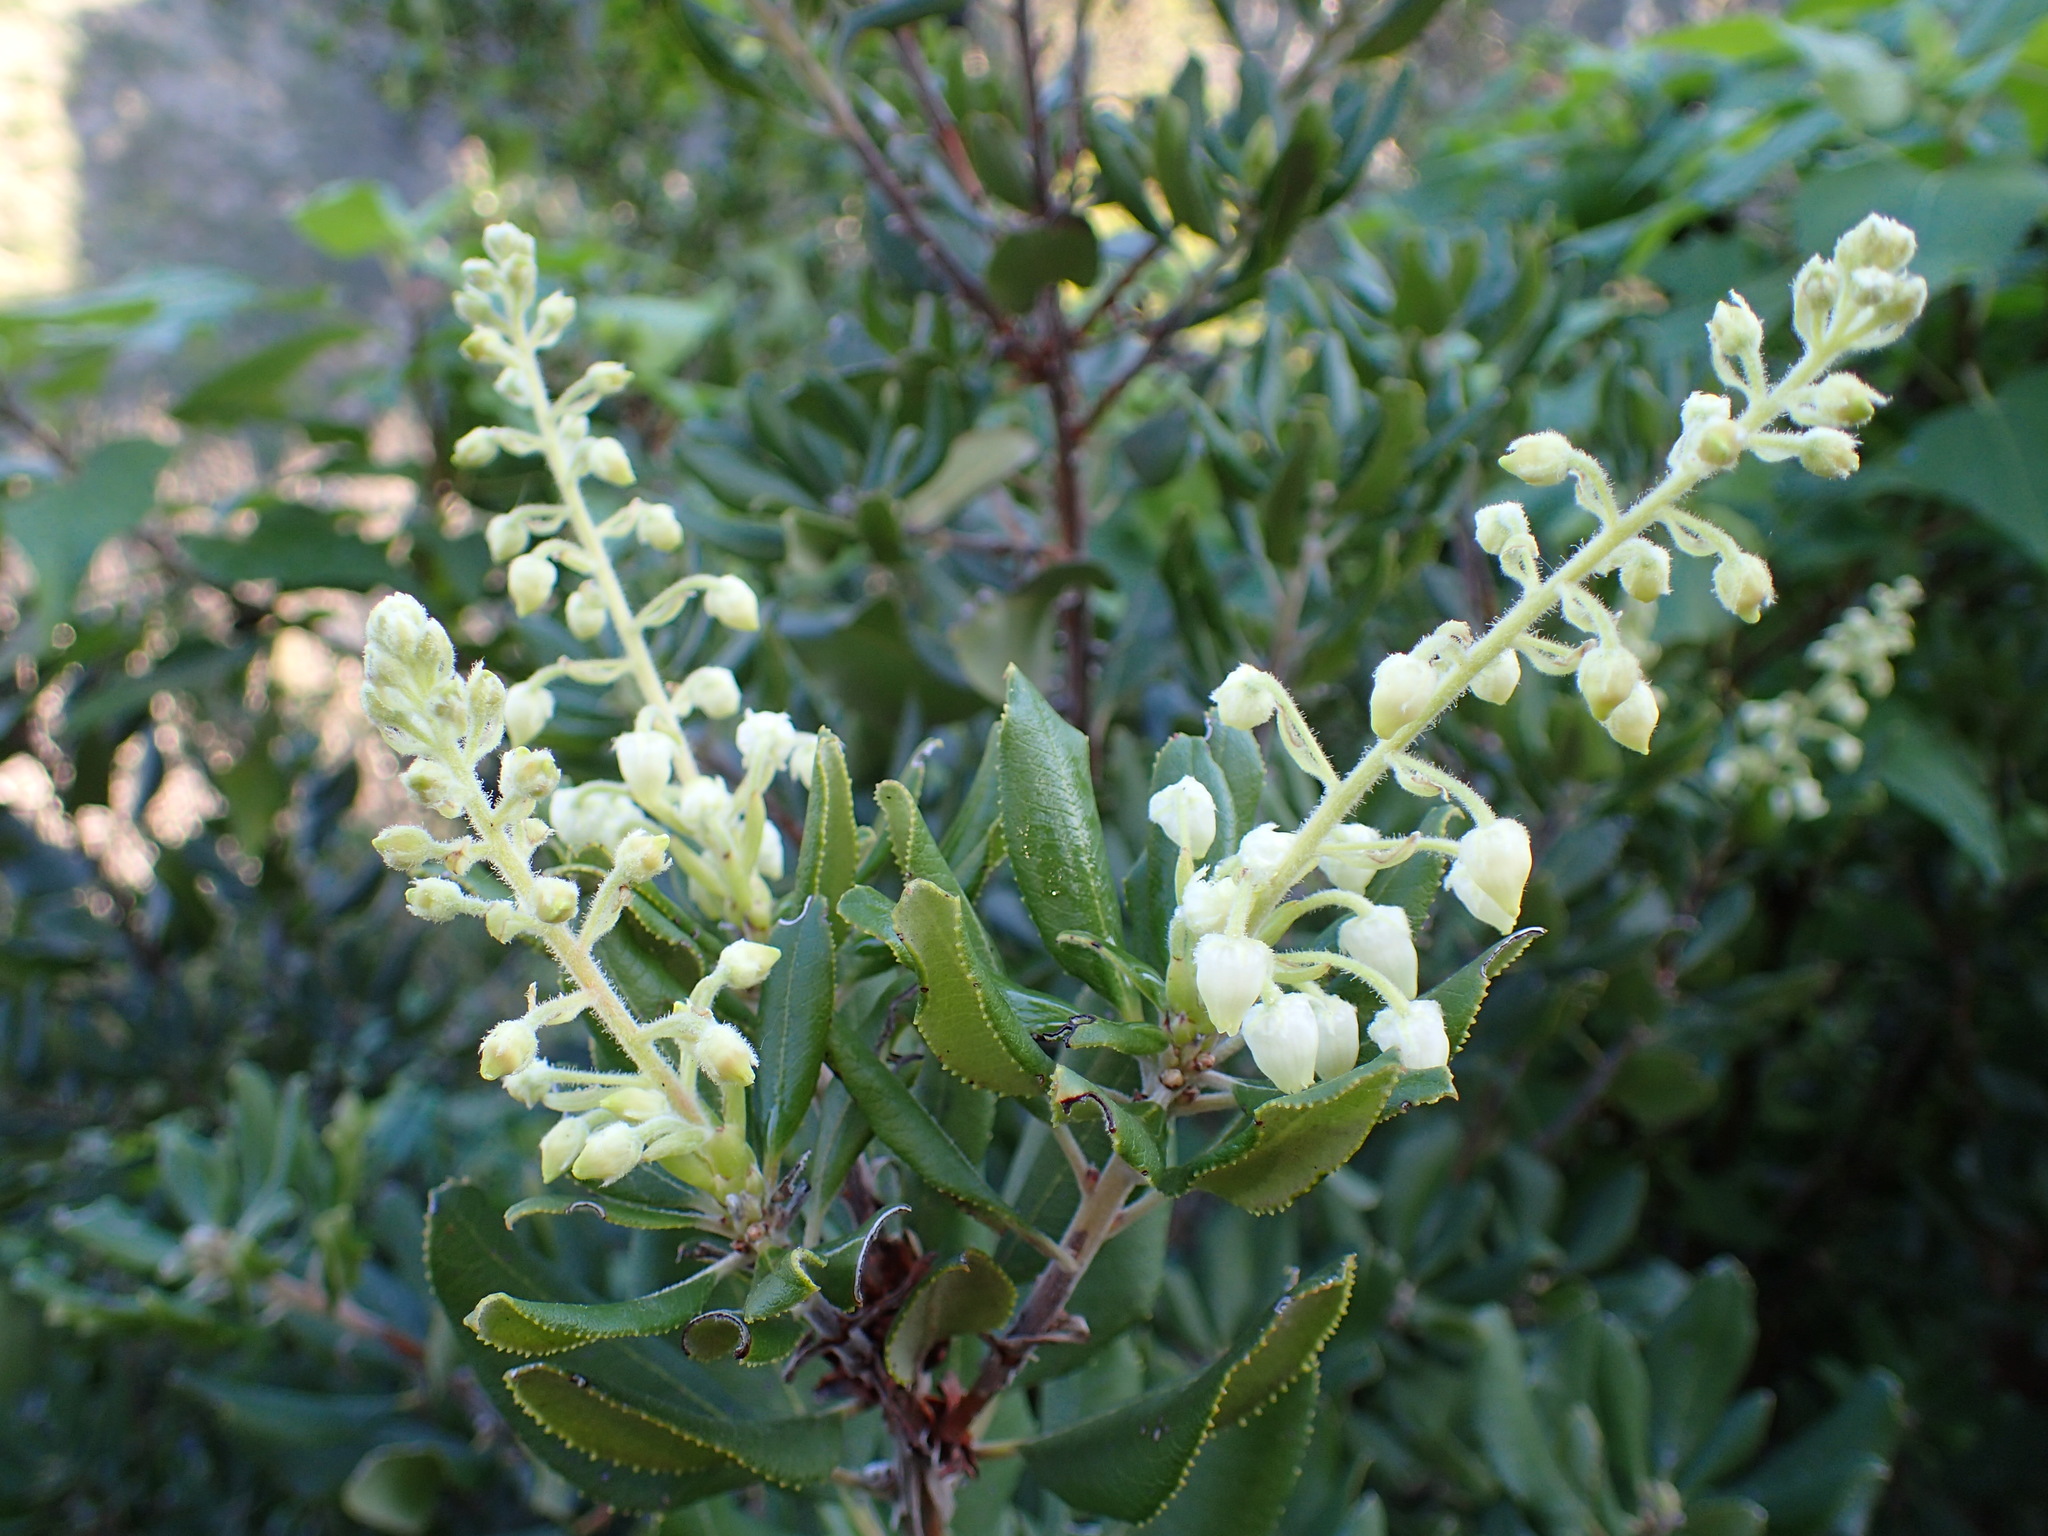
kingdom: Plantae
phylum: Tracheophyta
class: Magnoliopsida
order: Ericales
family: Ericaceae
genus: Comarostaphylis
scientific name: Comarostaphylis diversifolia
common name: Summer-holly
